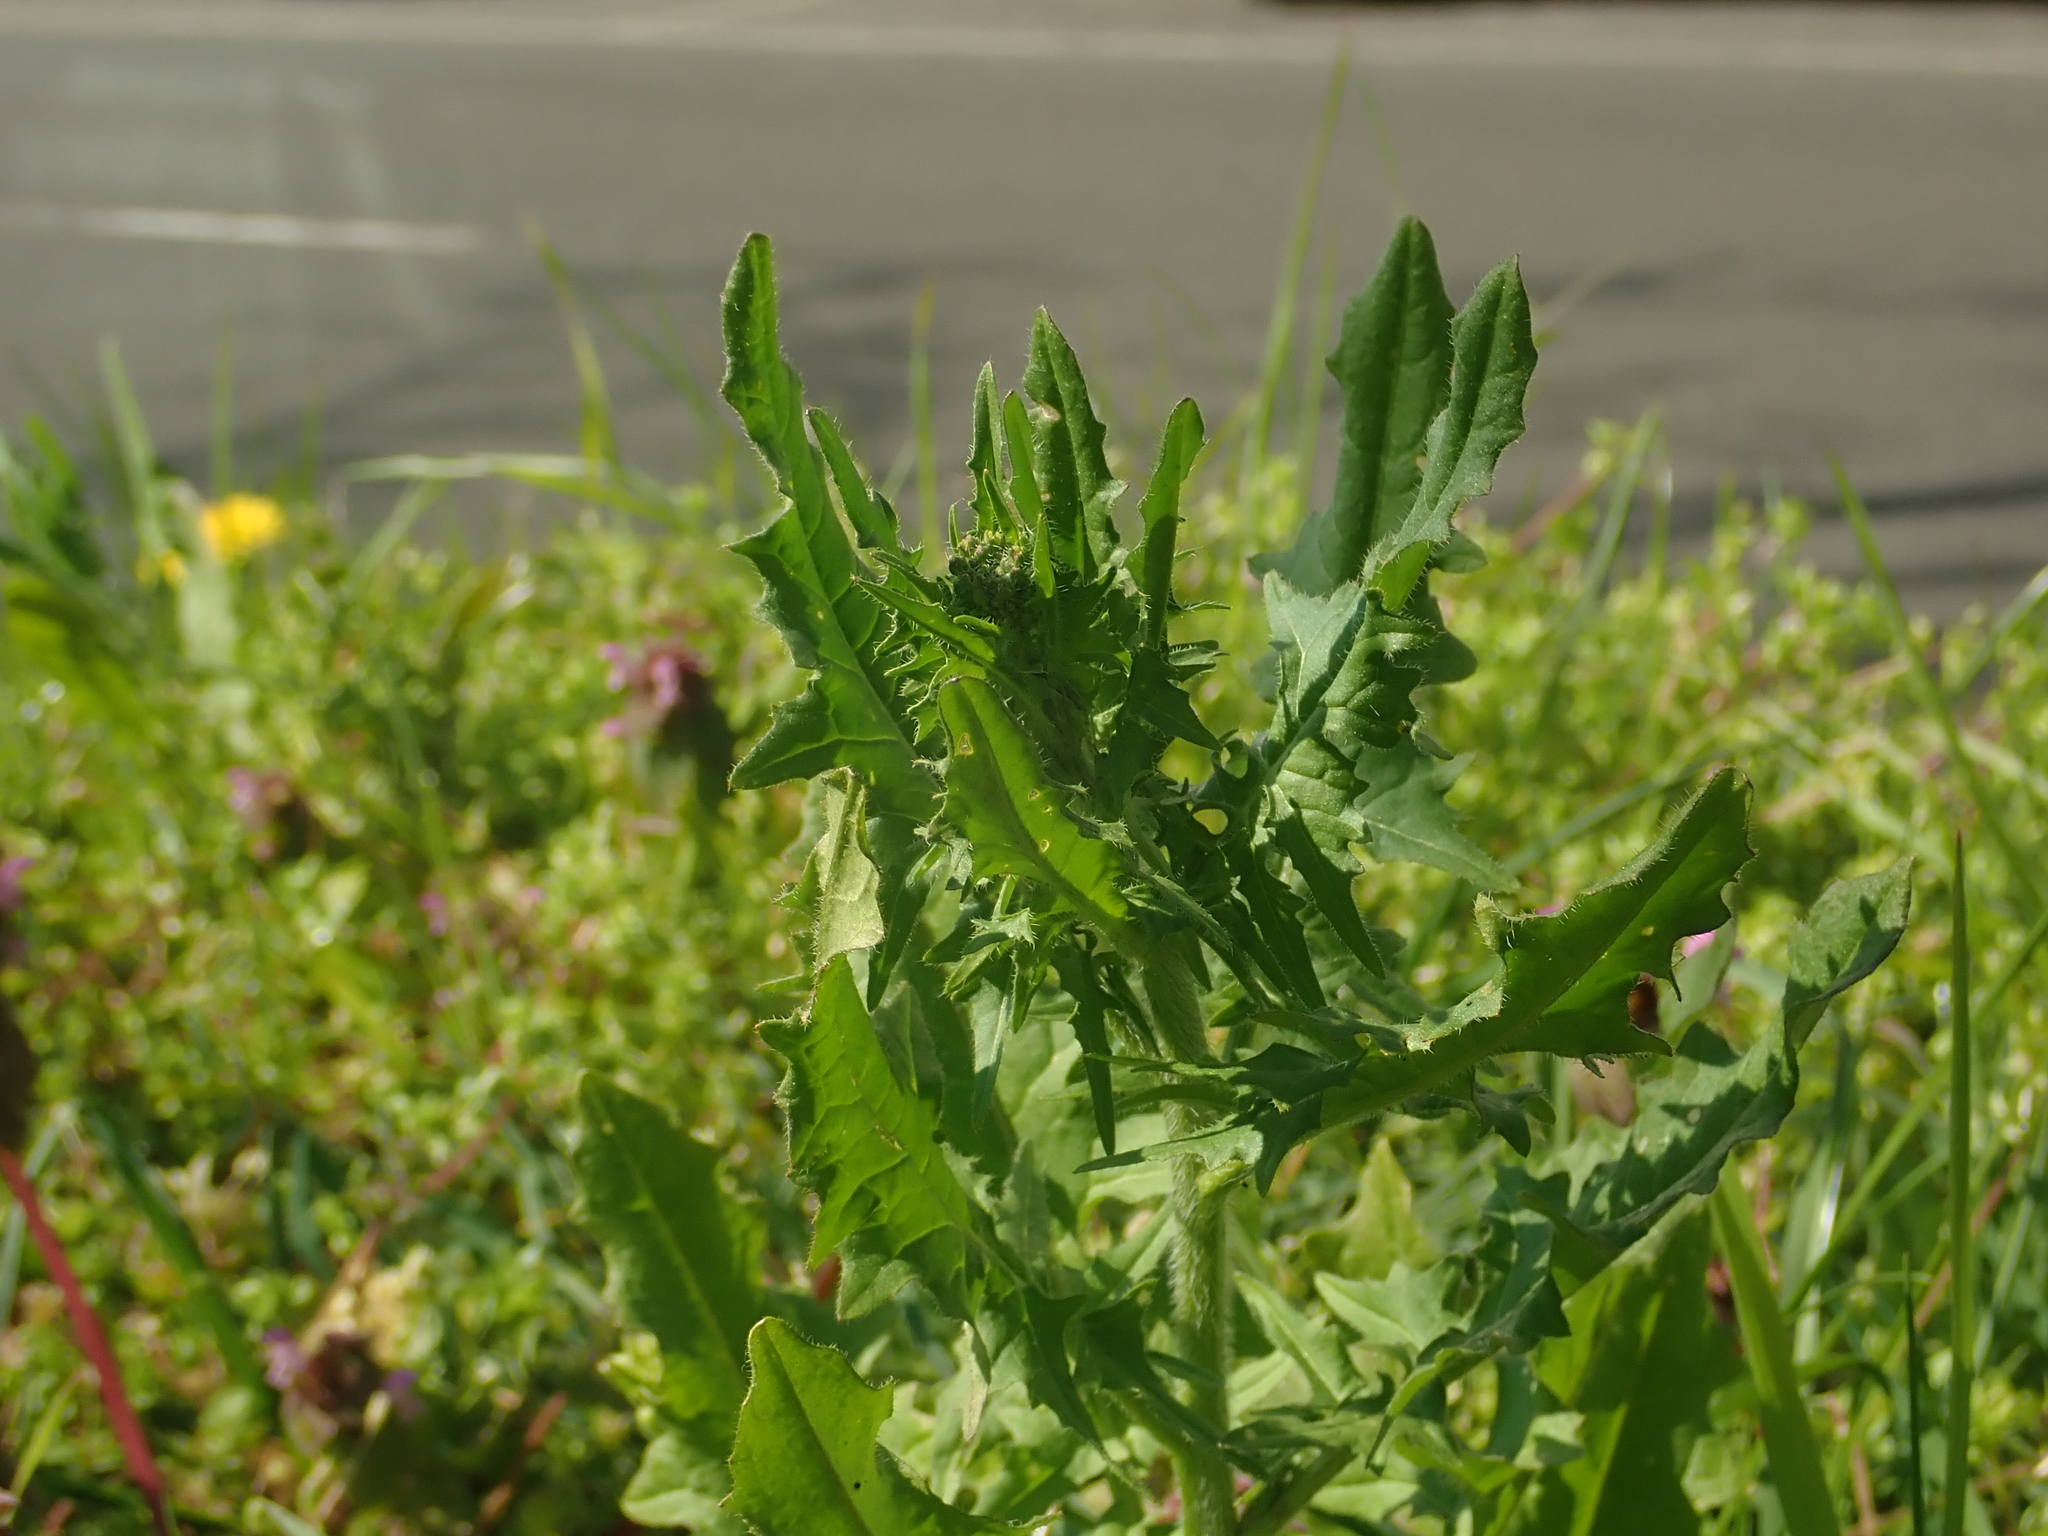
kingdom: Plantae
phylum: Tracheophyta
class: Magnoliopsida
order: Brassicales
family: Brassicaceae
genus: Sisymbrium
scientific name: Sisymbrium loeselii
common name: False london-rocket
